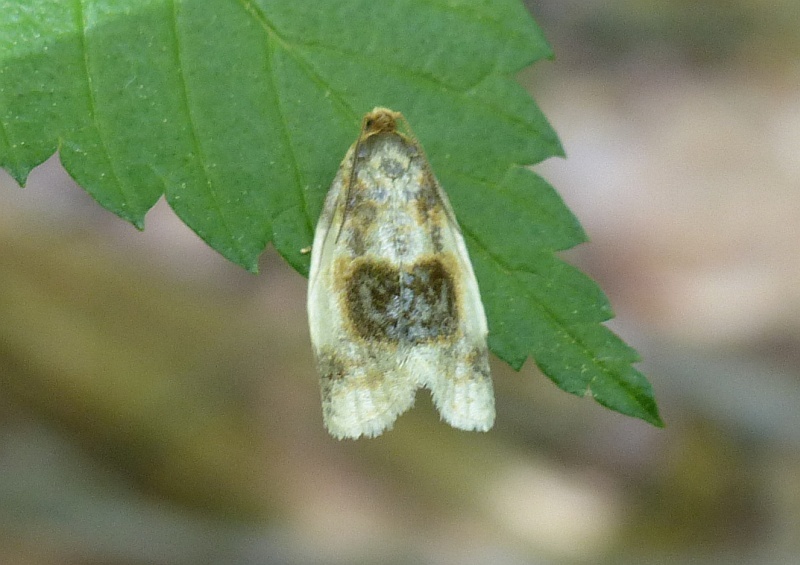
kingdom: Animalia
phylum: Arthropoda
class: Insecta
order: Lepidoptera
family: Tortricidae
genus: Clepsis
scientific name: Clepsis melaleucanus
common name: American apple tortrix
